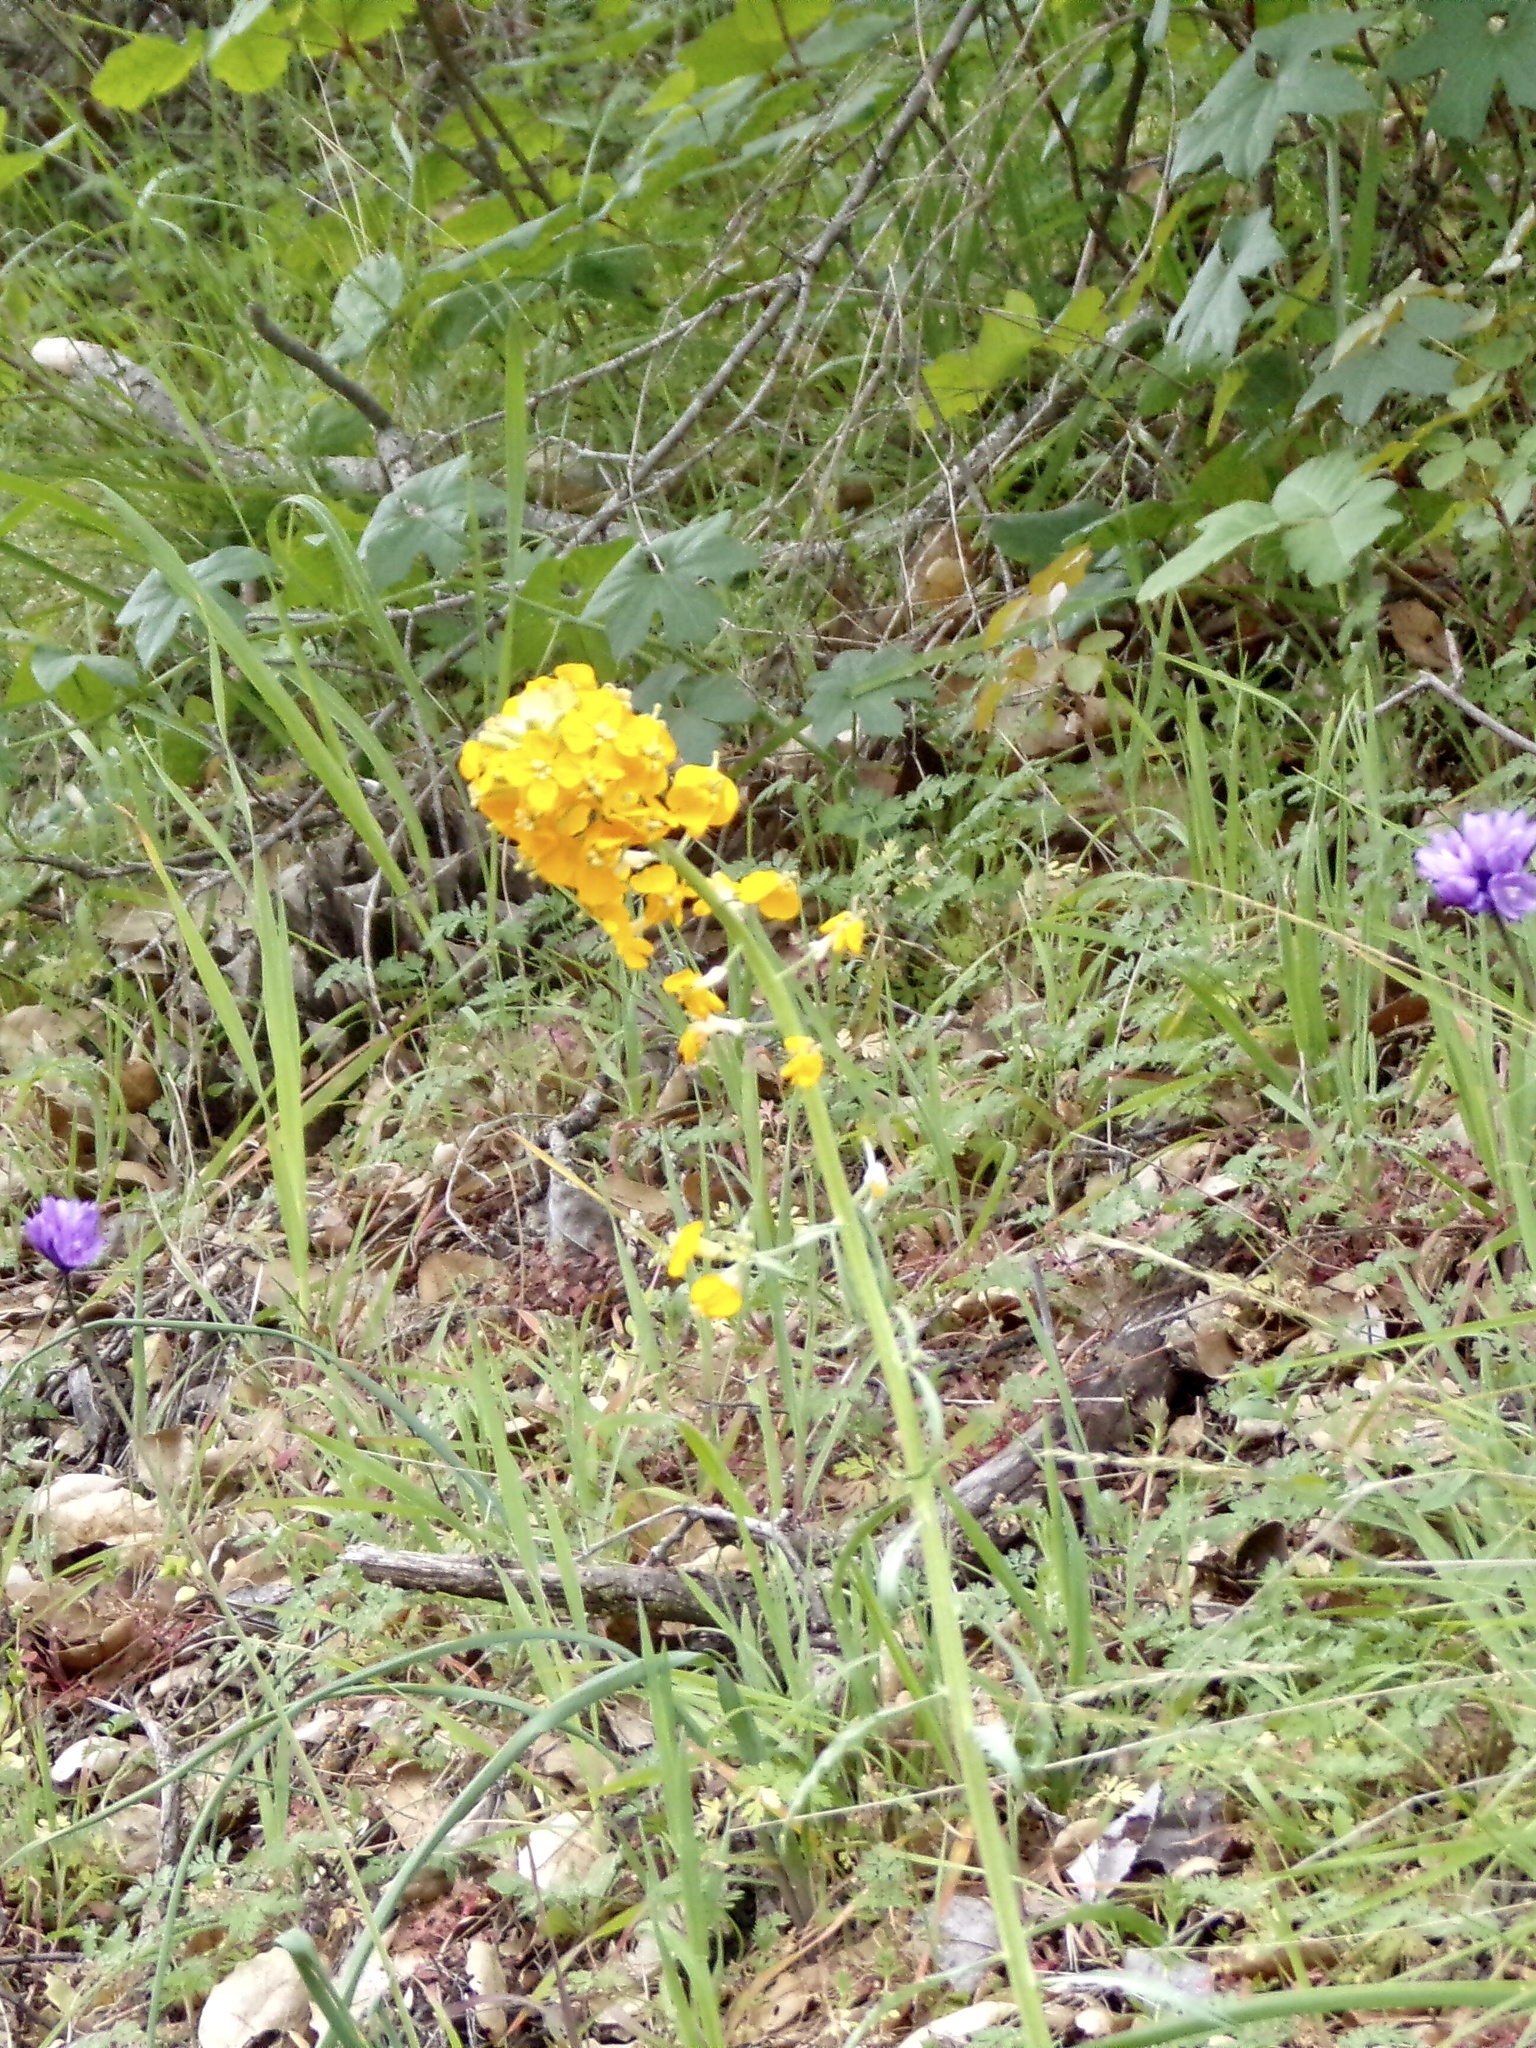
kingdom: Plantae
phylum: Tracheophyta
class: Magnoliopsida
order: Brassicales
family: Brassicaceae
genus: Erysimum
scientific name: Erysimum capitatum
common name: Western wallflower
